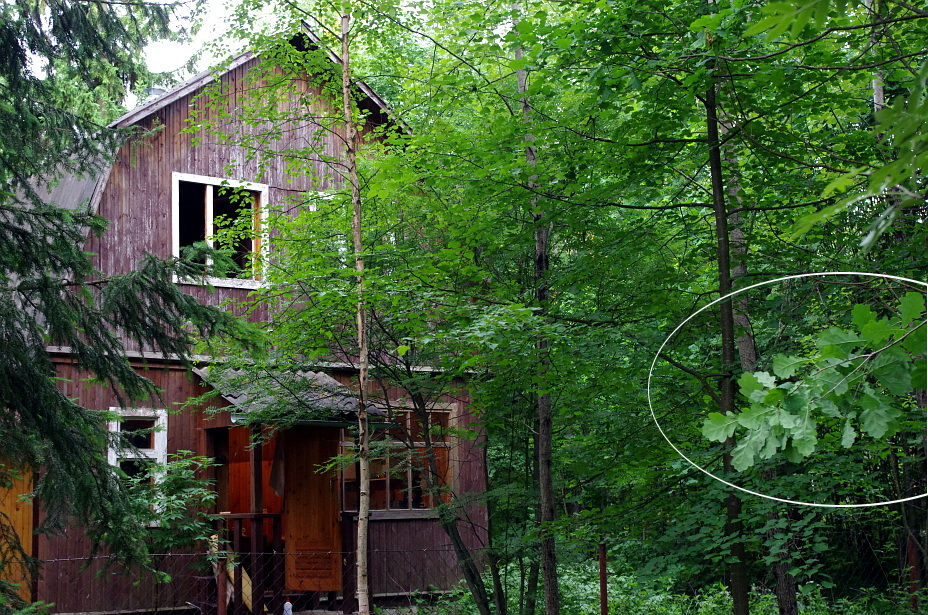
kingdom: Plantae
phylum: Tracheophyta
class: Magnoliopsida
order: Fagales
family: Fagaceae
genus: Quercus
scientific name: Quercus robur
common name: Pedunculate oak
